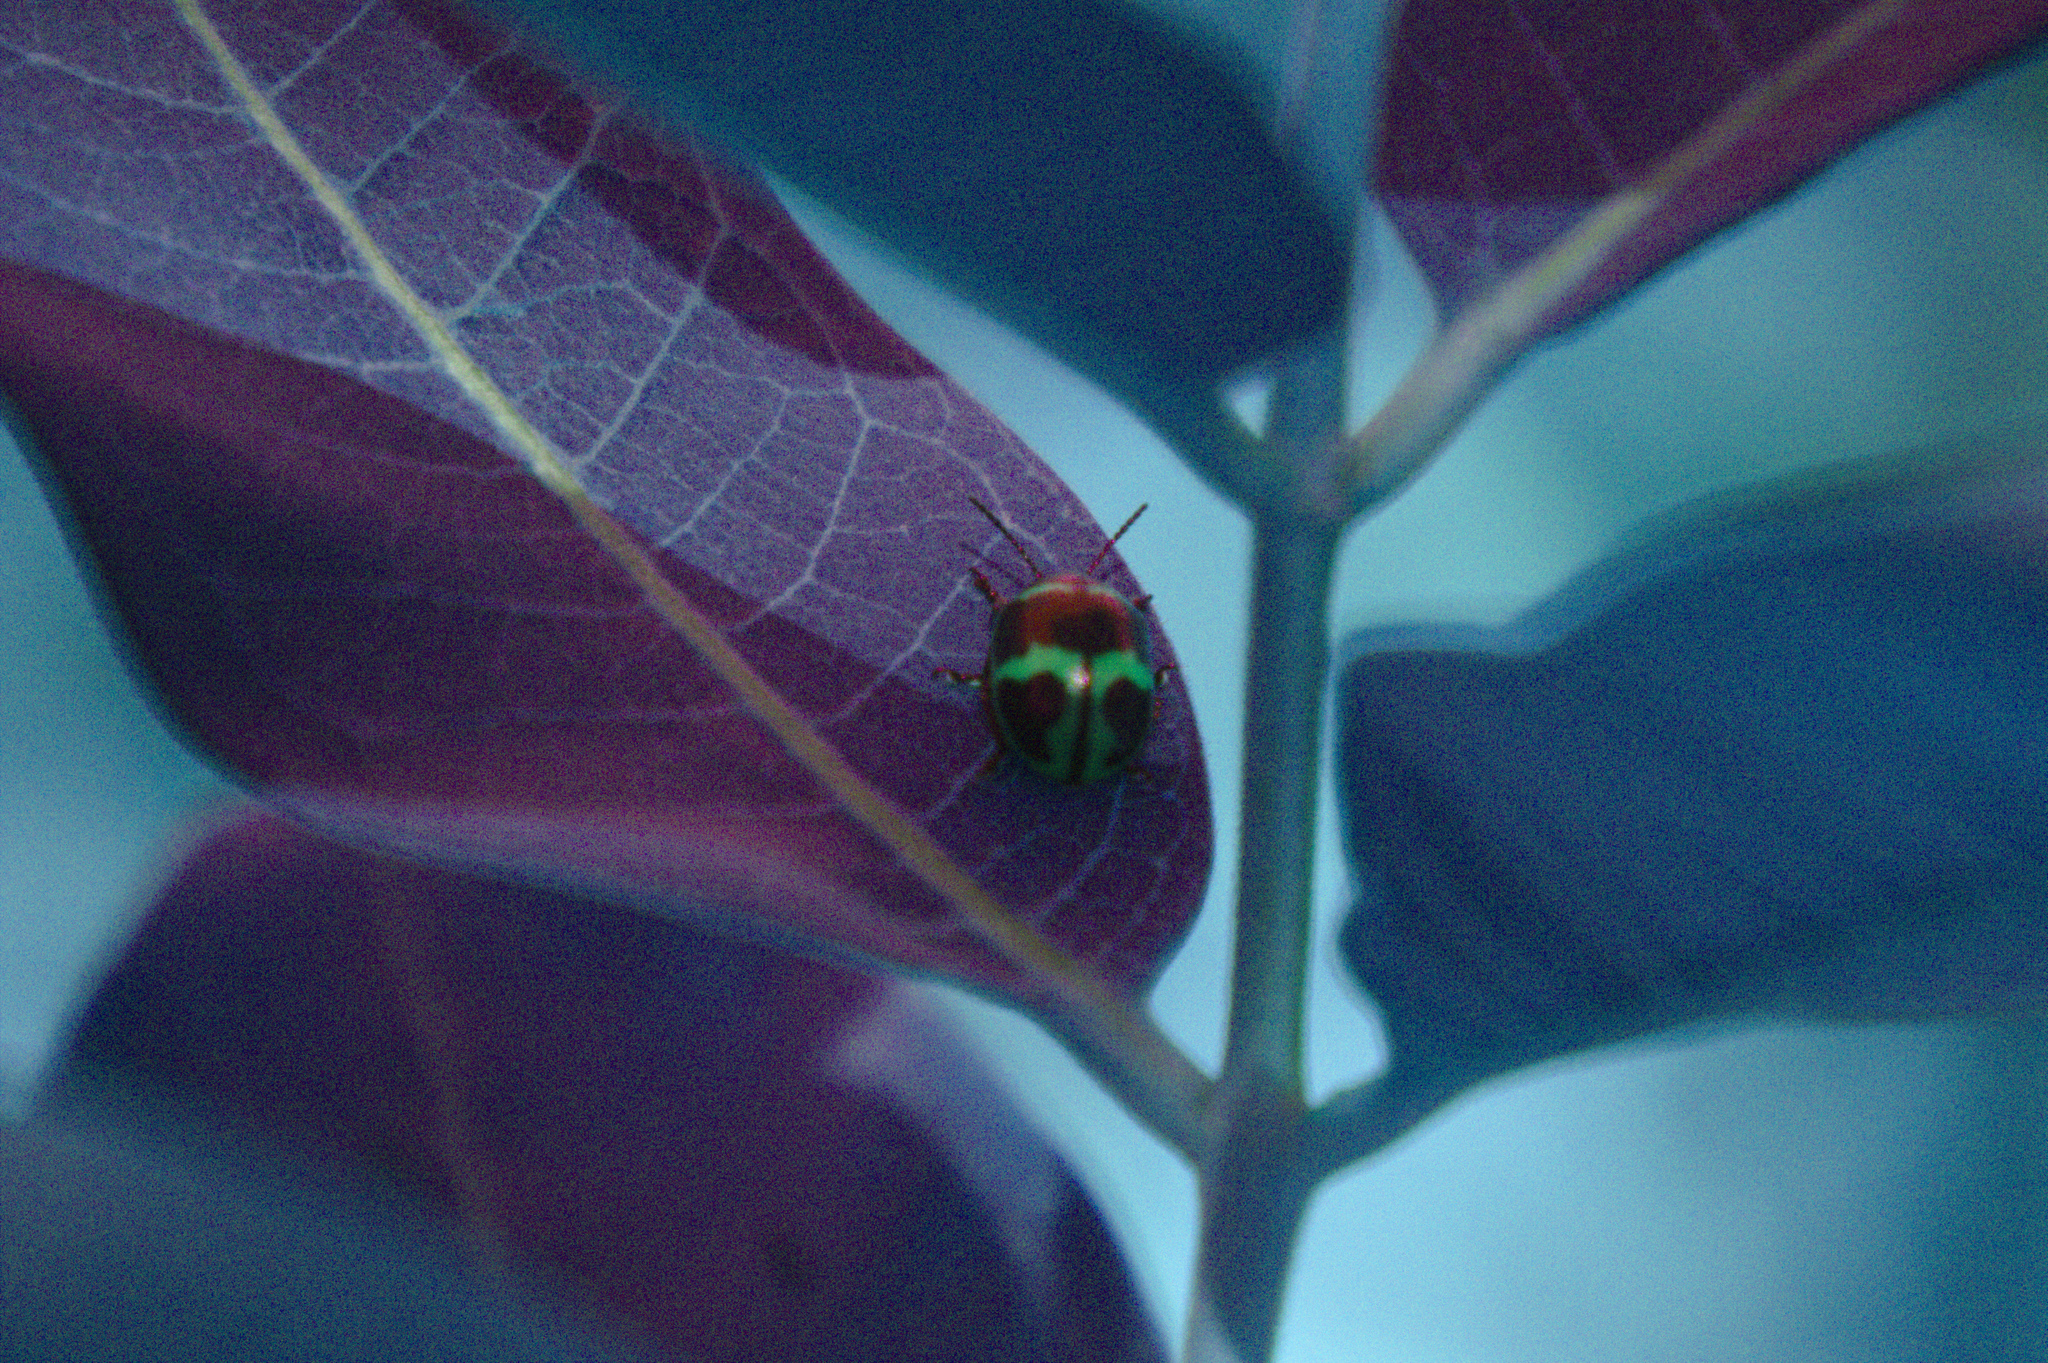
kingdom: Animalia
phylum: Arthropoda
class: Insecta
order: Coleoptera
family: Chrysomelidae
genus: Labidomera
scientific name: Labidomera clivicollis
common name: Swamp milkweed leaf beetle
